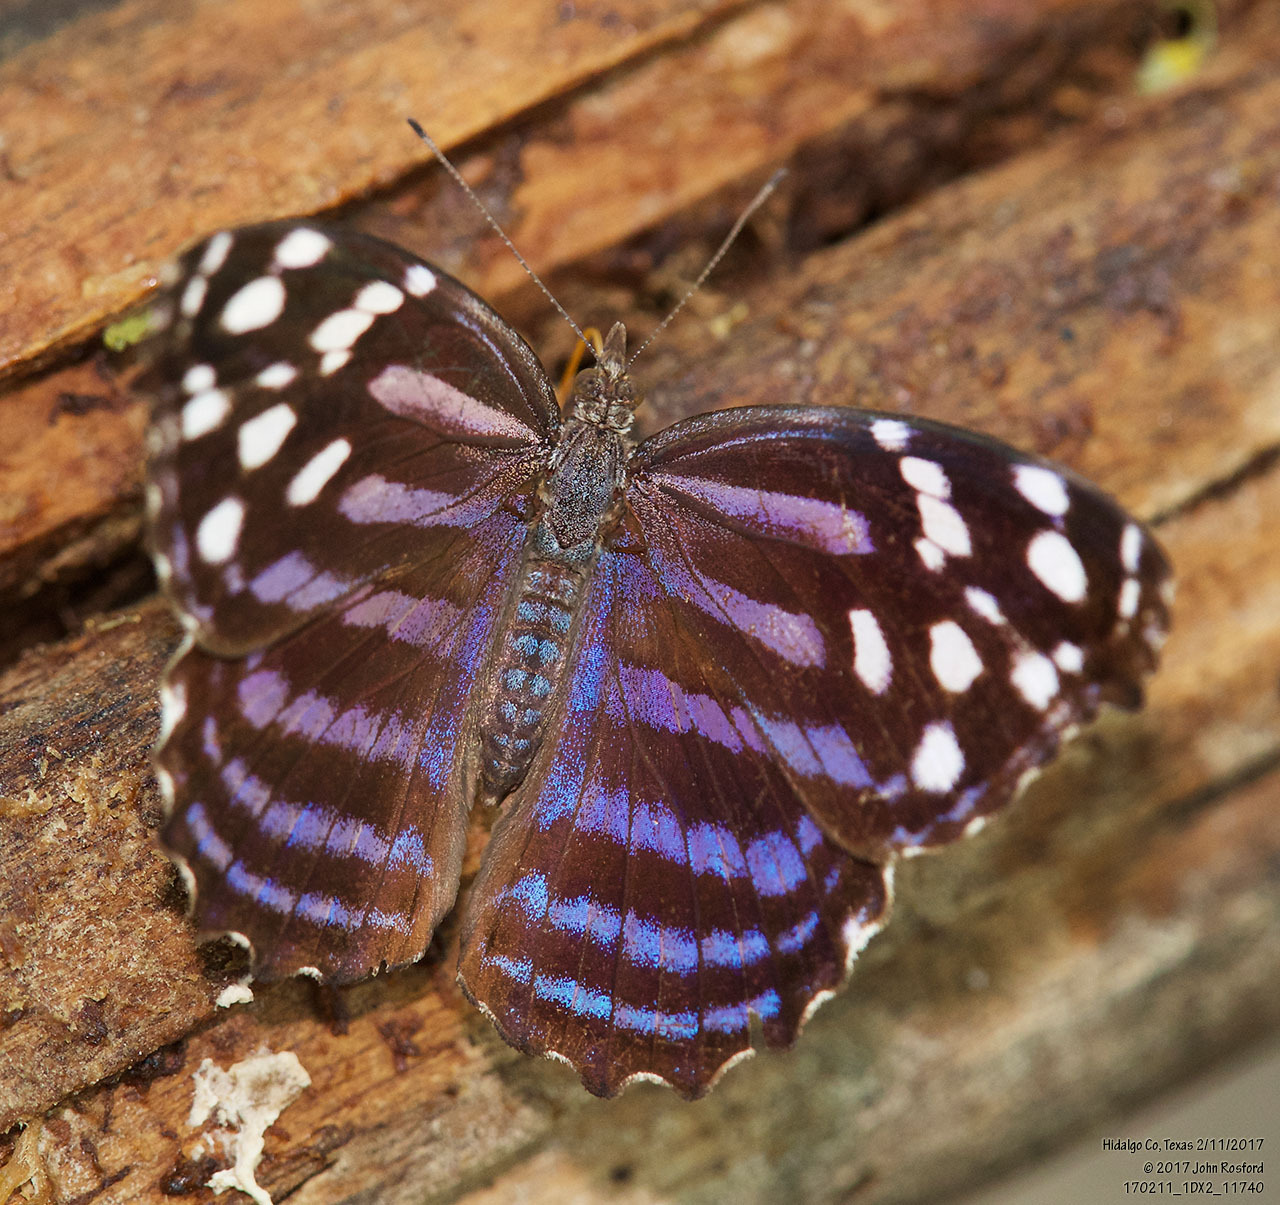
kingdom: Animalia
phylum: Arthropoda
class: Insecta
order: Lepidoptera
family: Nymphalidae
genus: Myscelia
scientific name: Myscelia ethusa
